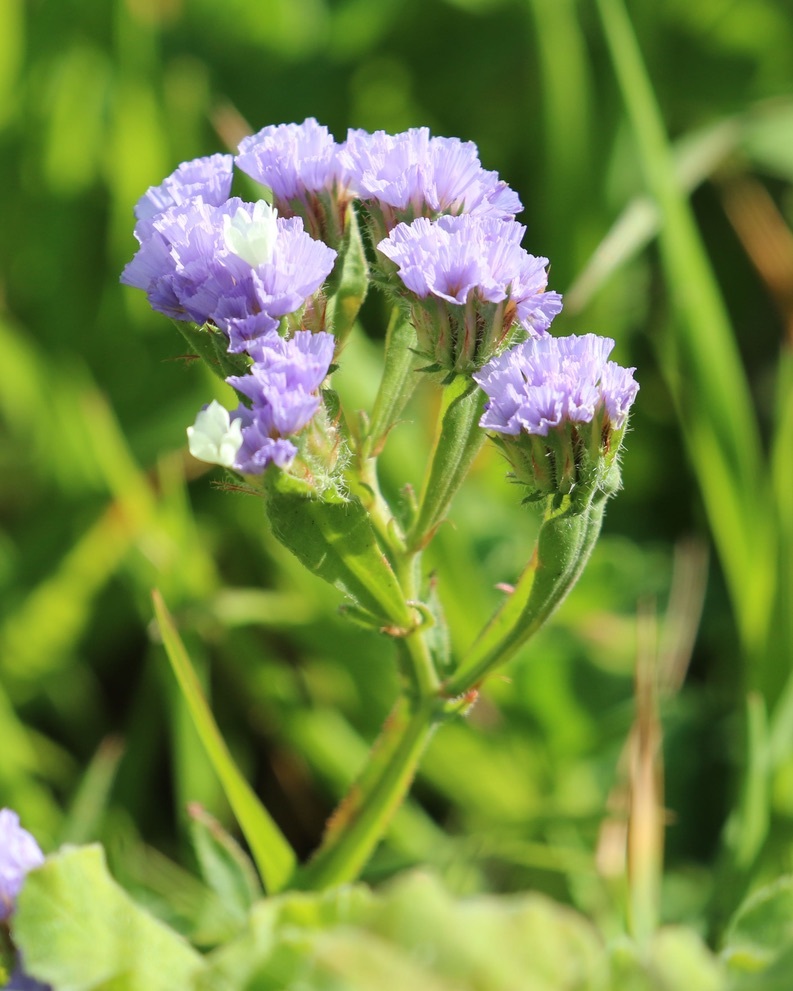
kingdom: Plantae
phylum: Tracheophyta
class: Magnoliopsida
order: Caryophyllales
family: Plumbaginaceae
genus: Limonium
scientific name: Limonium sinuatum
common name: Statice
